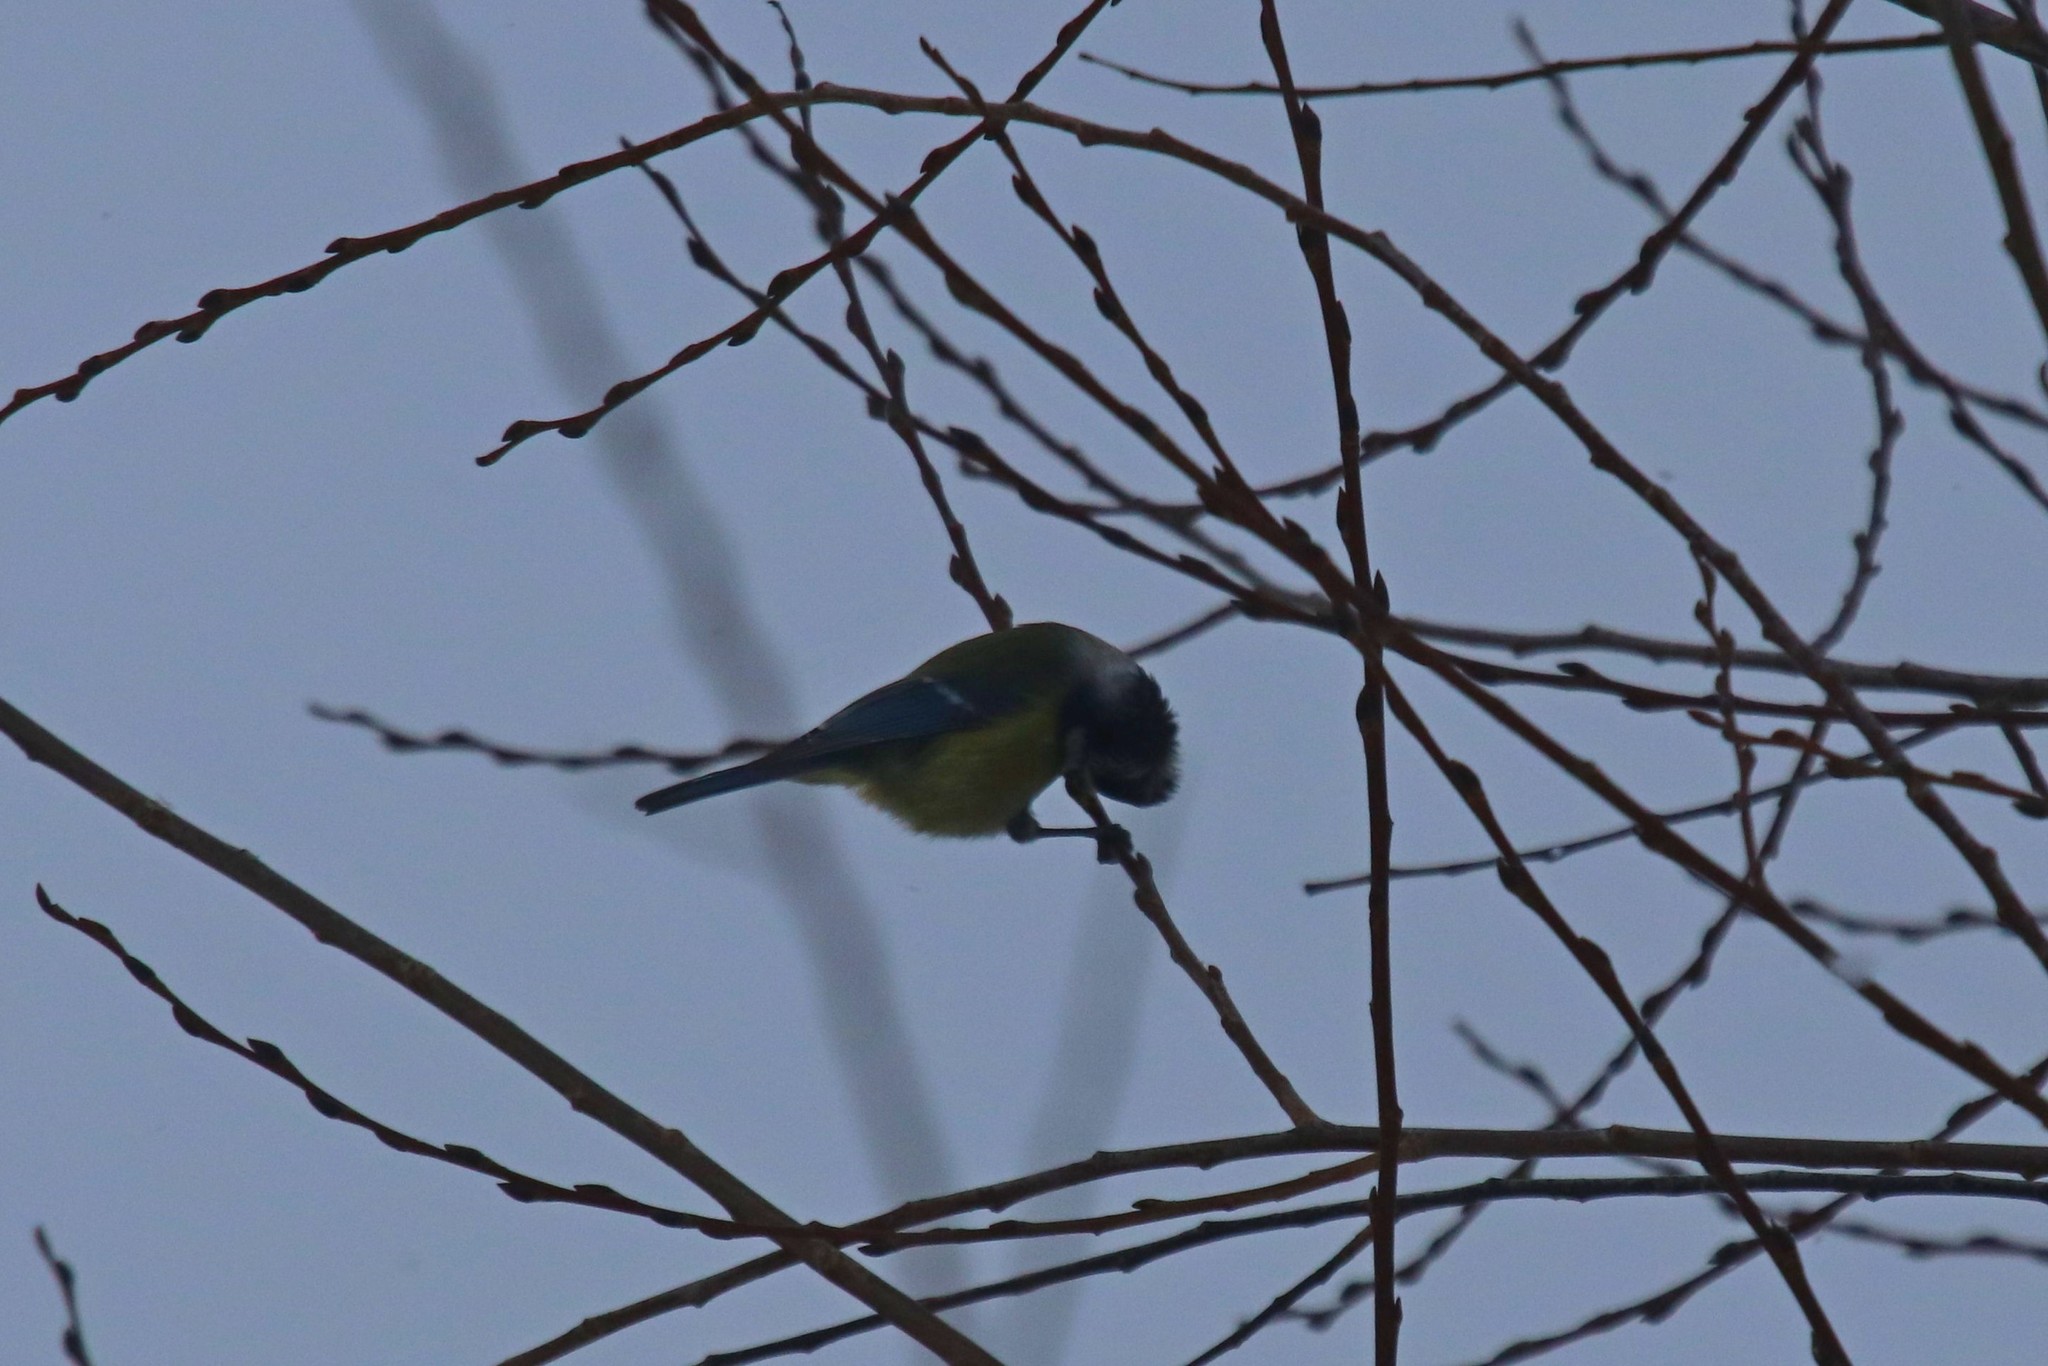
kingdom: Animalia
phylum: Chordata
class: Aves
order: Passeriformes
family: Paridae
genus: Cyanistes
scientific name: Cyanistes caeruleus
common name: Eurasian blue tit
